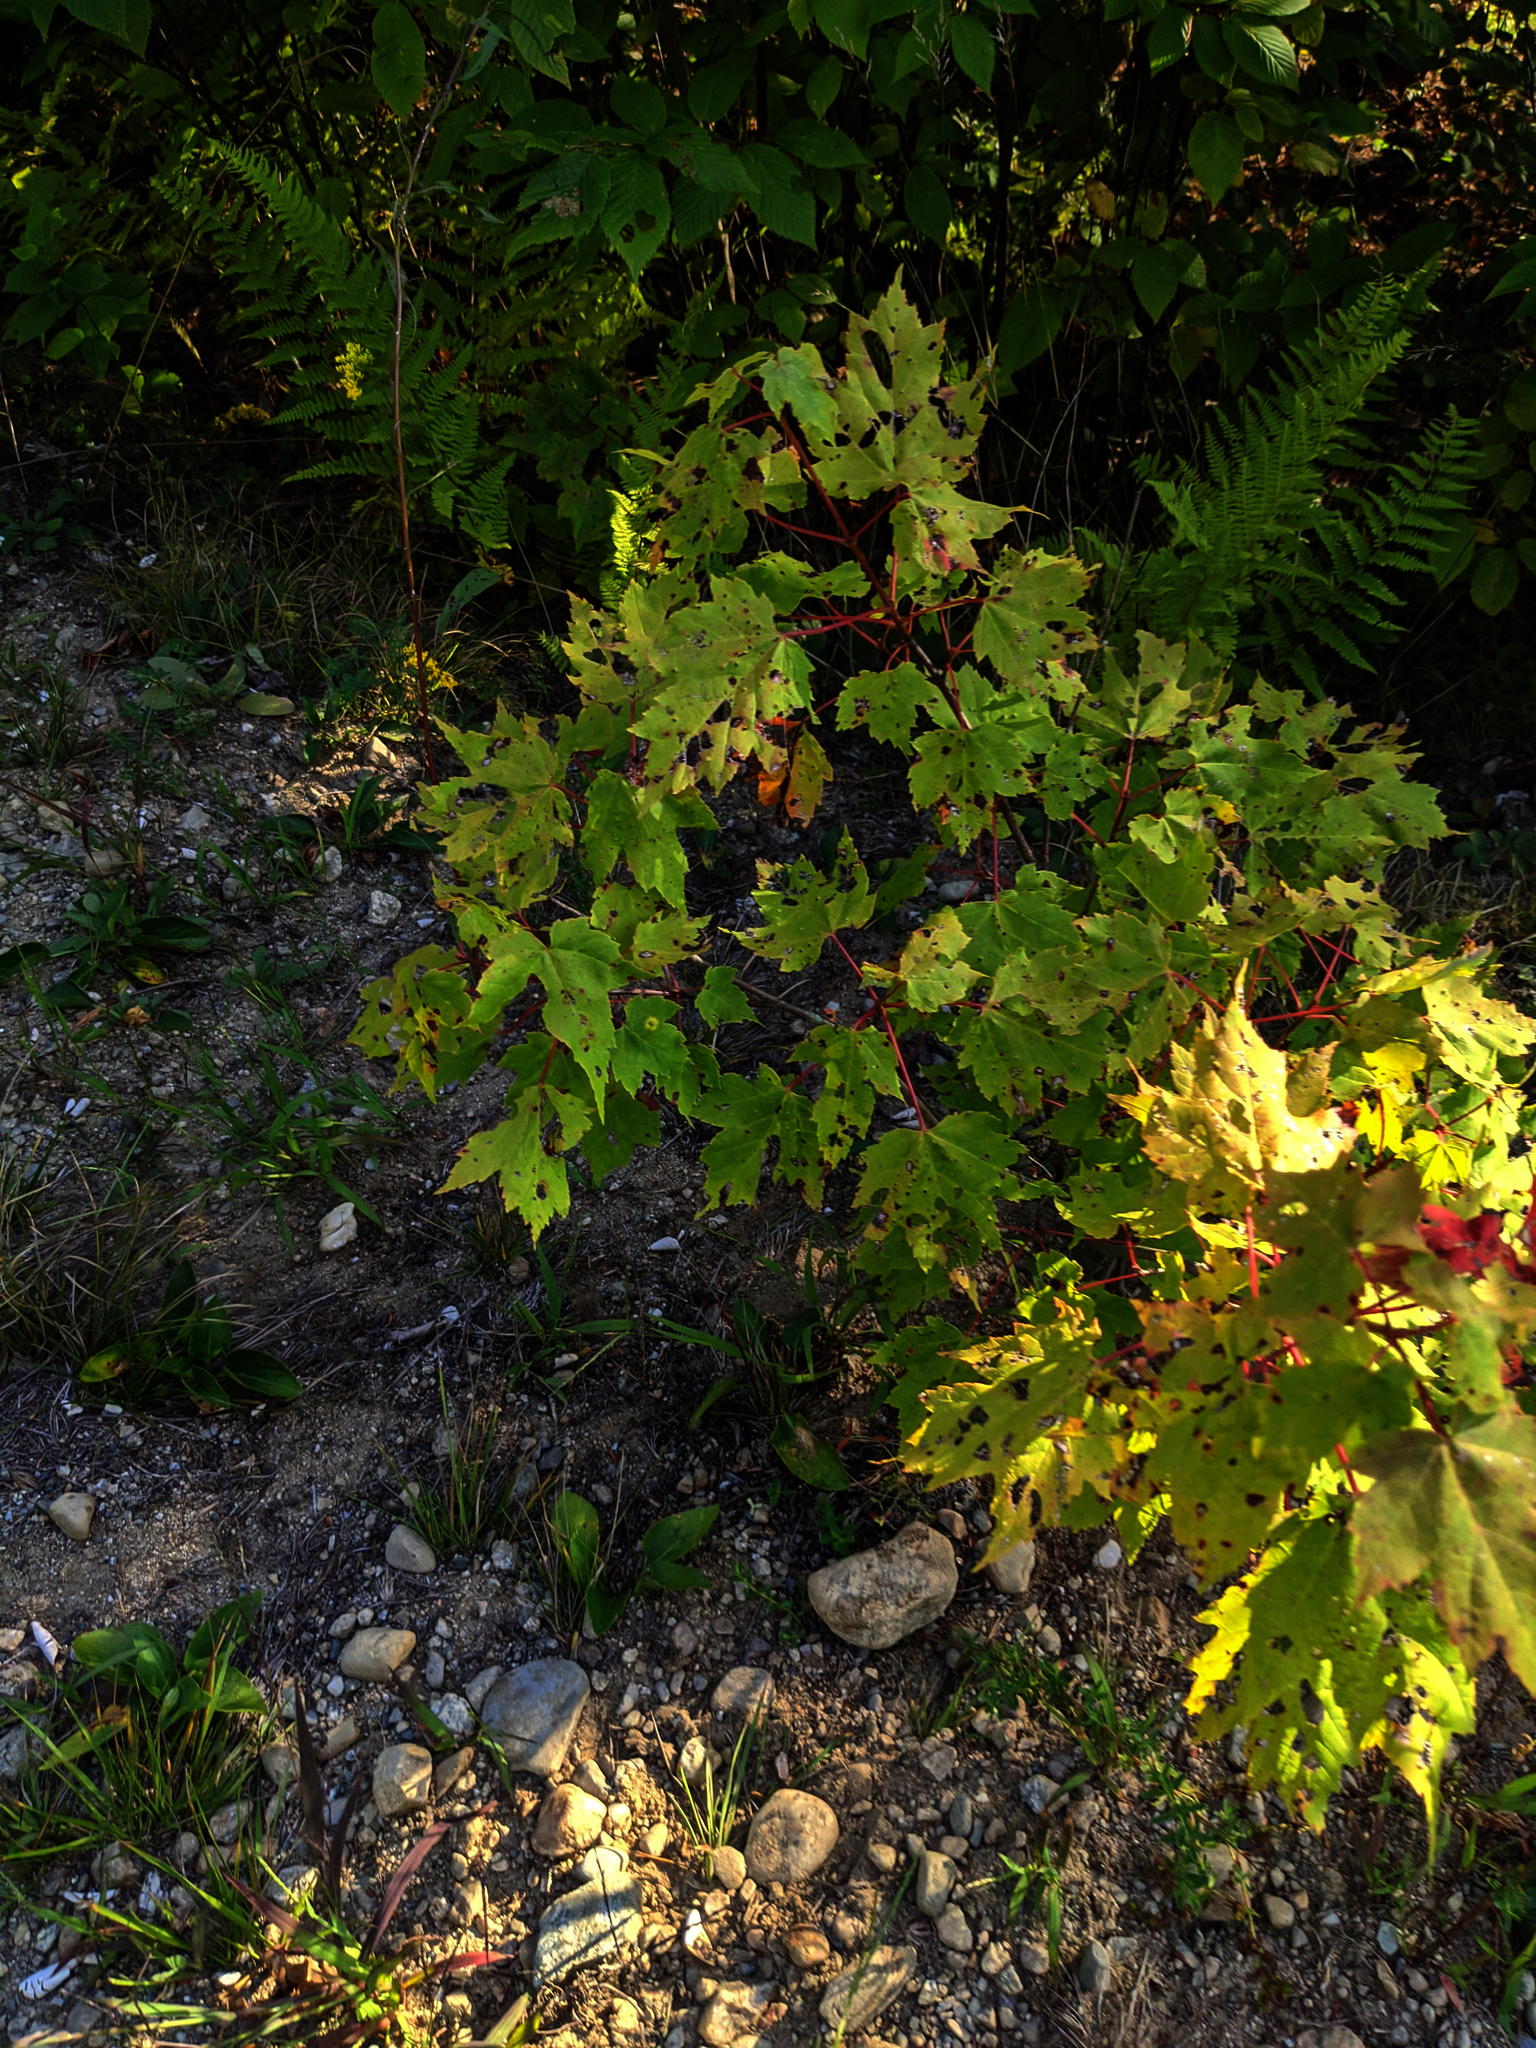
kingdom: Plantae
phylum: Tracheophyta
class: Magnoliopsida
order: Sapindales
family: Sapindaceae
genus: Acer
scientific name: Acer rubrum
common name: Red maple
